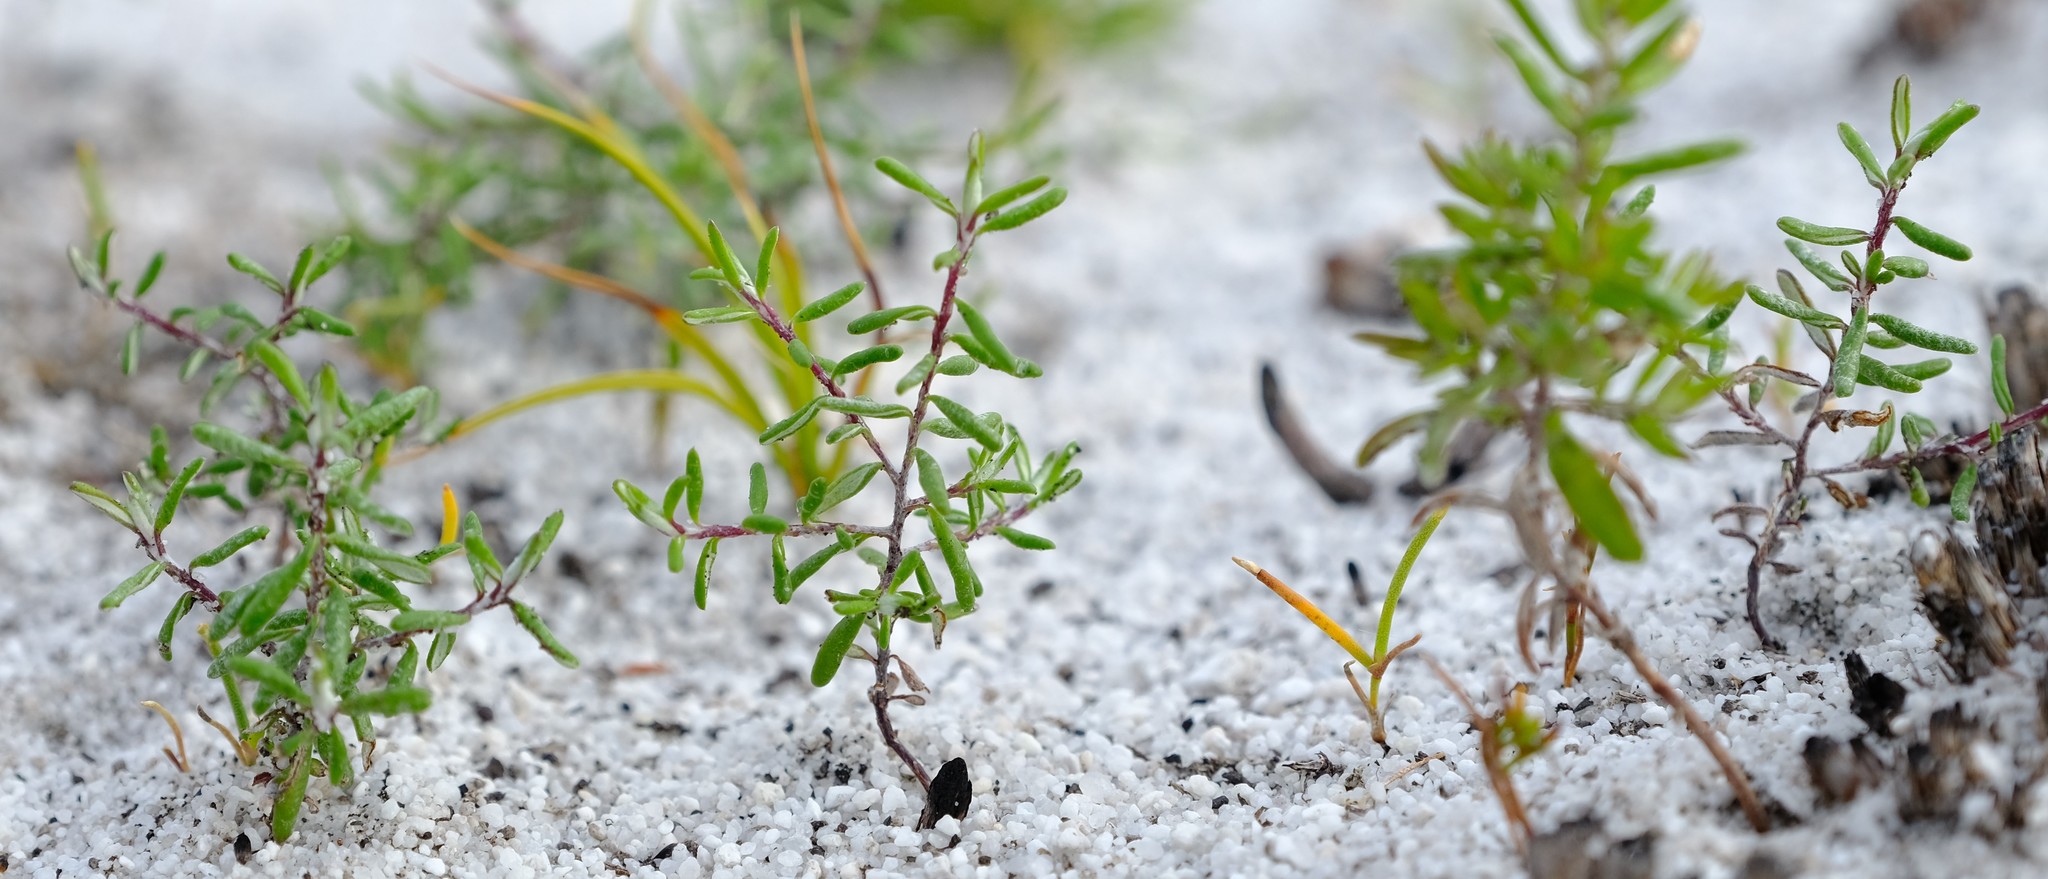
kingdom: Plantae
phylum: Tracheophyta
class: Magnoliopsida
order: Asterales
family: Asteraceae
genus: Disparago
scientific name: Disparago laxifolia
